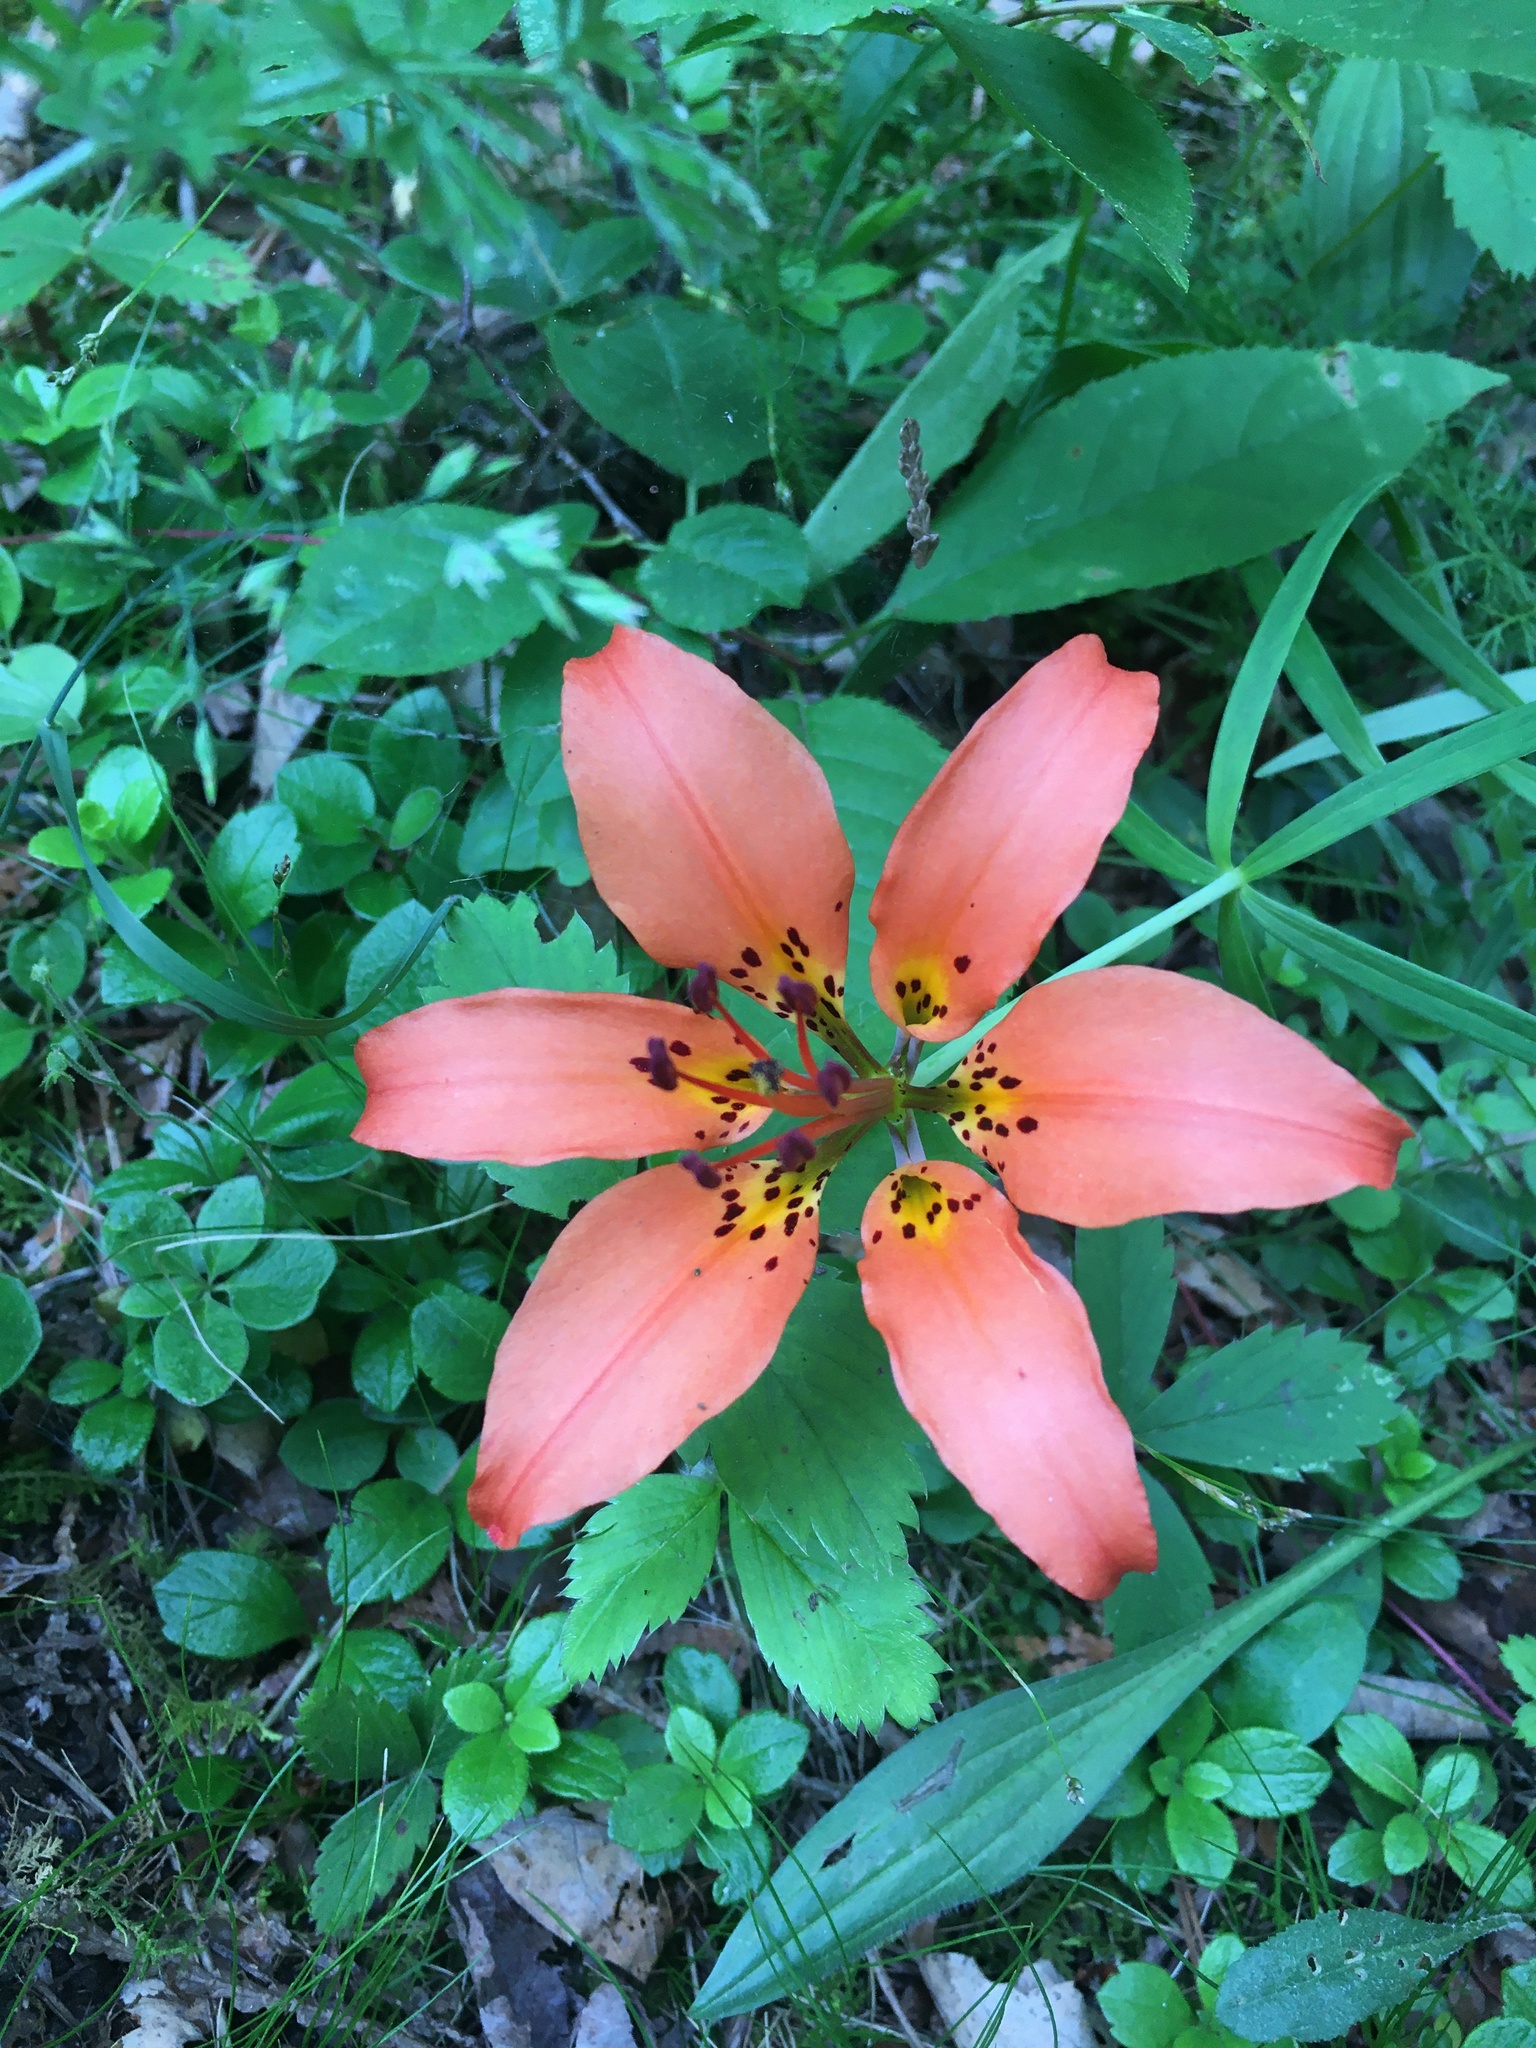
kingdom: Plantae
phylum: Tracheophyta
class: Liliopsida
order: Liliales
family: Liliaceae
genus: Lilium
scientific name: Lilium philadelphicum
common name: Red lily
